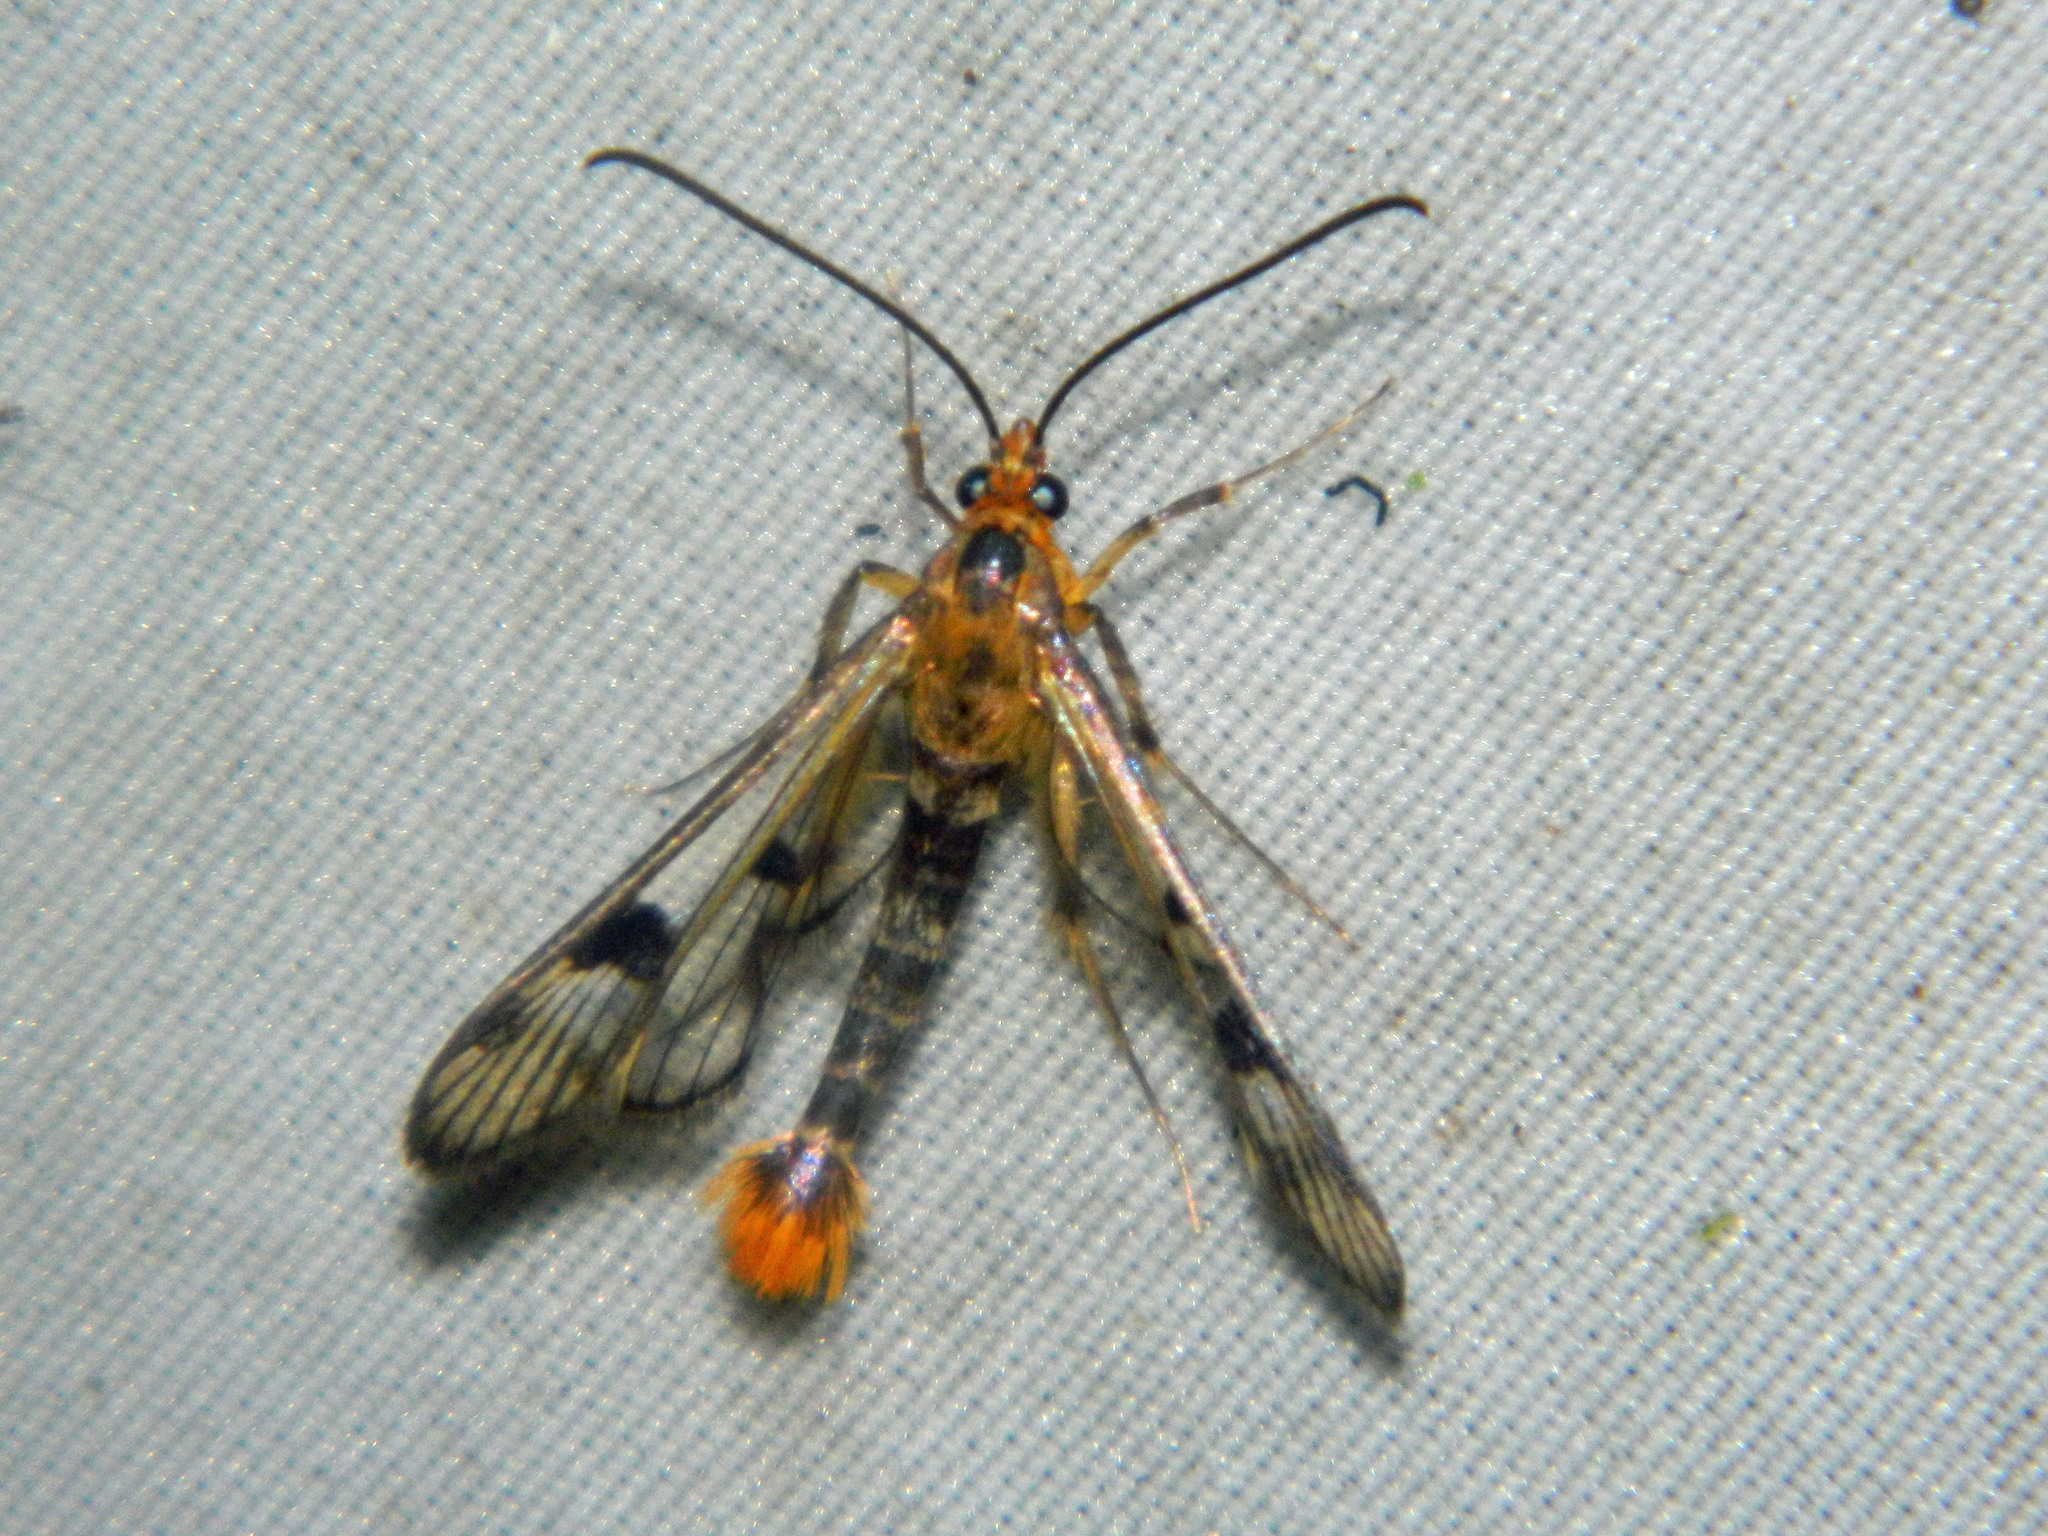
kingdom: Animalia
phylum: Arthropoda
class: Insecta
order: Lepidoptera
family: Sesiidae
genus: Synanthedon
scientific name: Synanthedon acerni
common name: Maple callus borer moth
